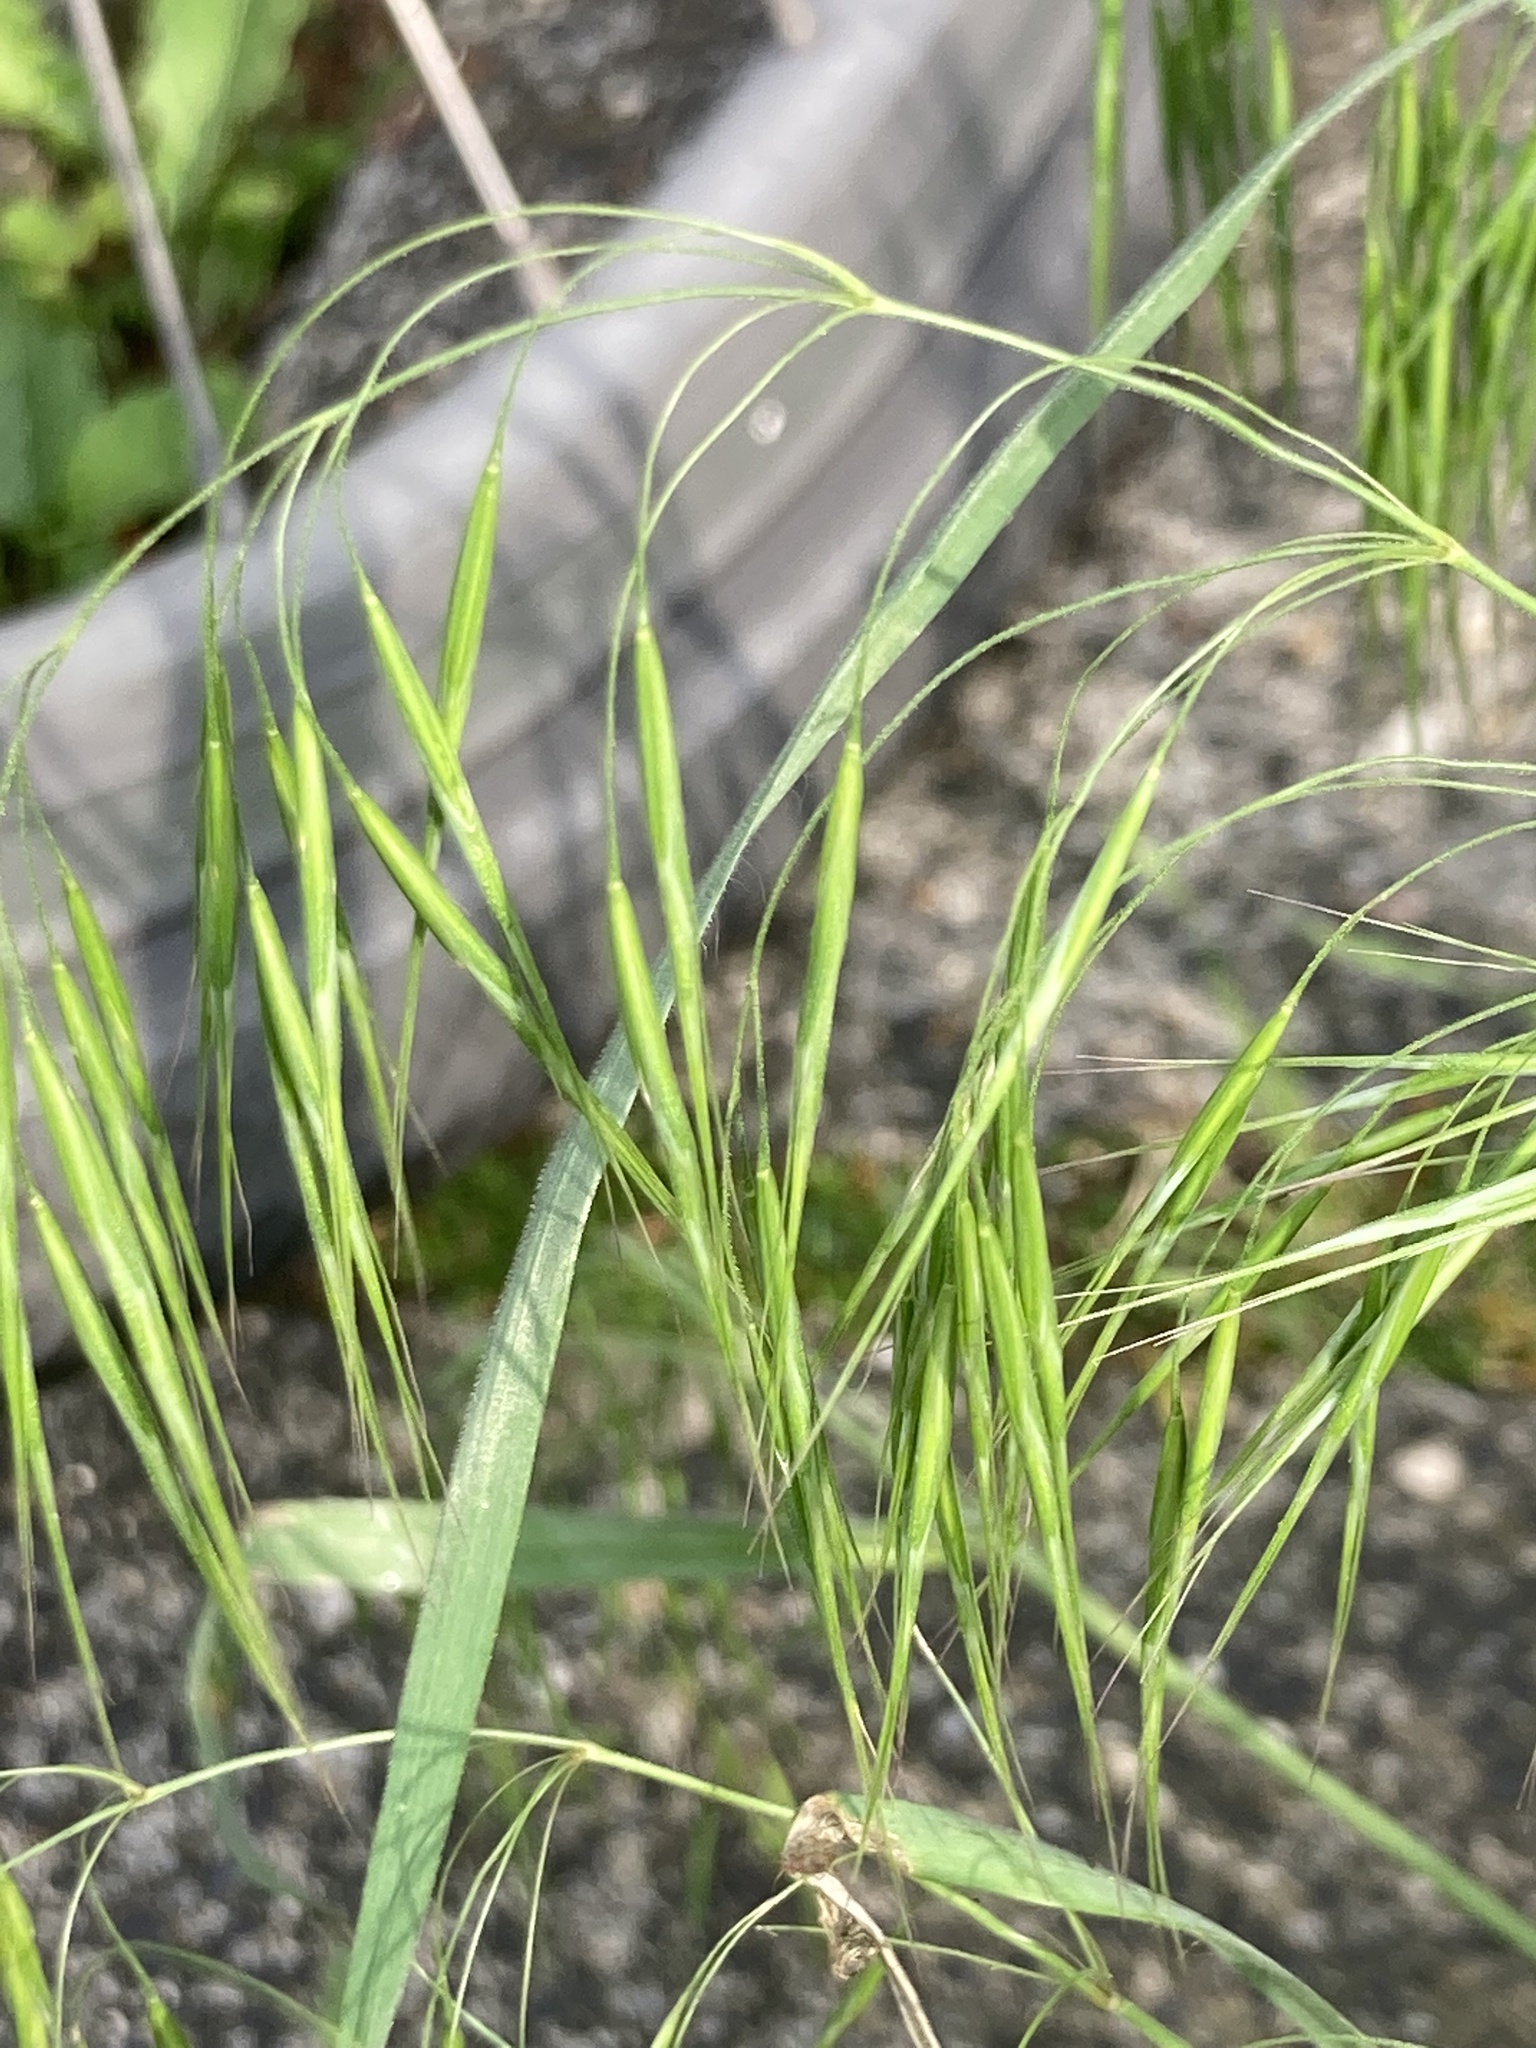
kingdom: Plantae
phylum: Tracheophyta
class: Liliopsida
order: Poales
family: Poaceae
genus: Bromus
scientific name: Bromus sterilis
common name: Poverty brome
